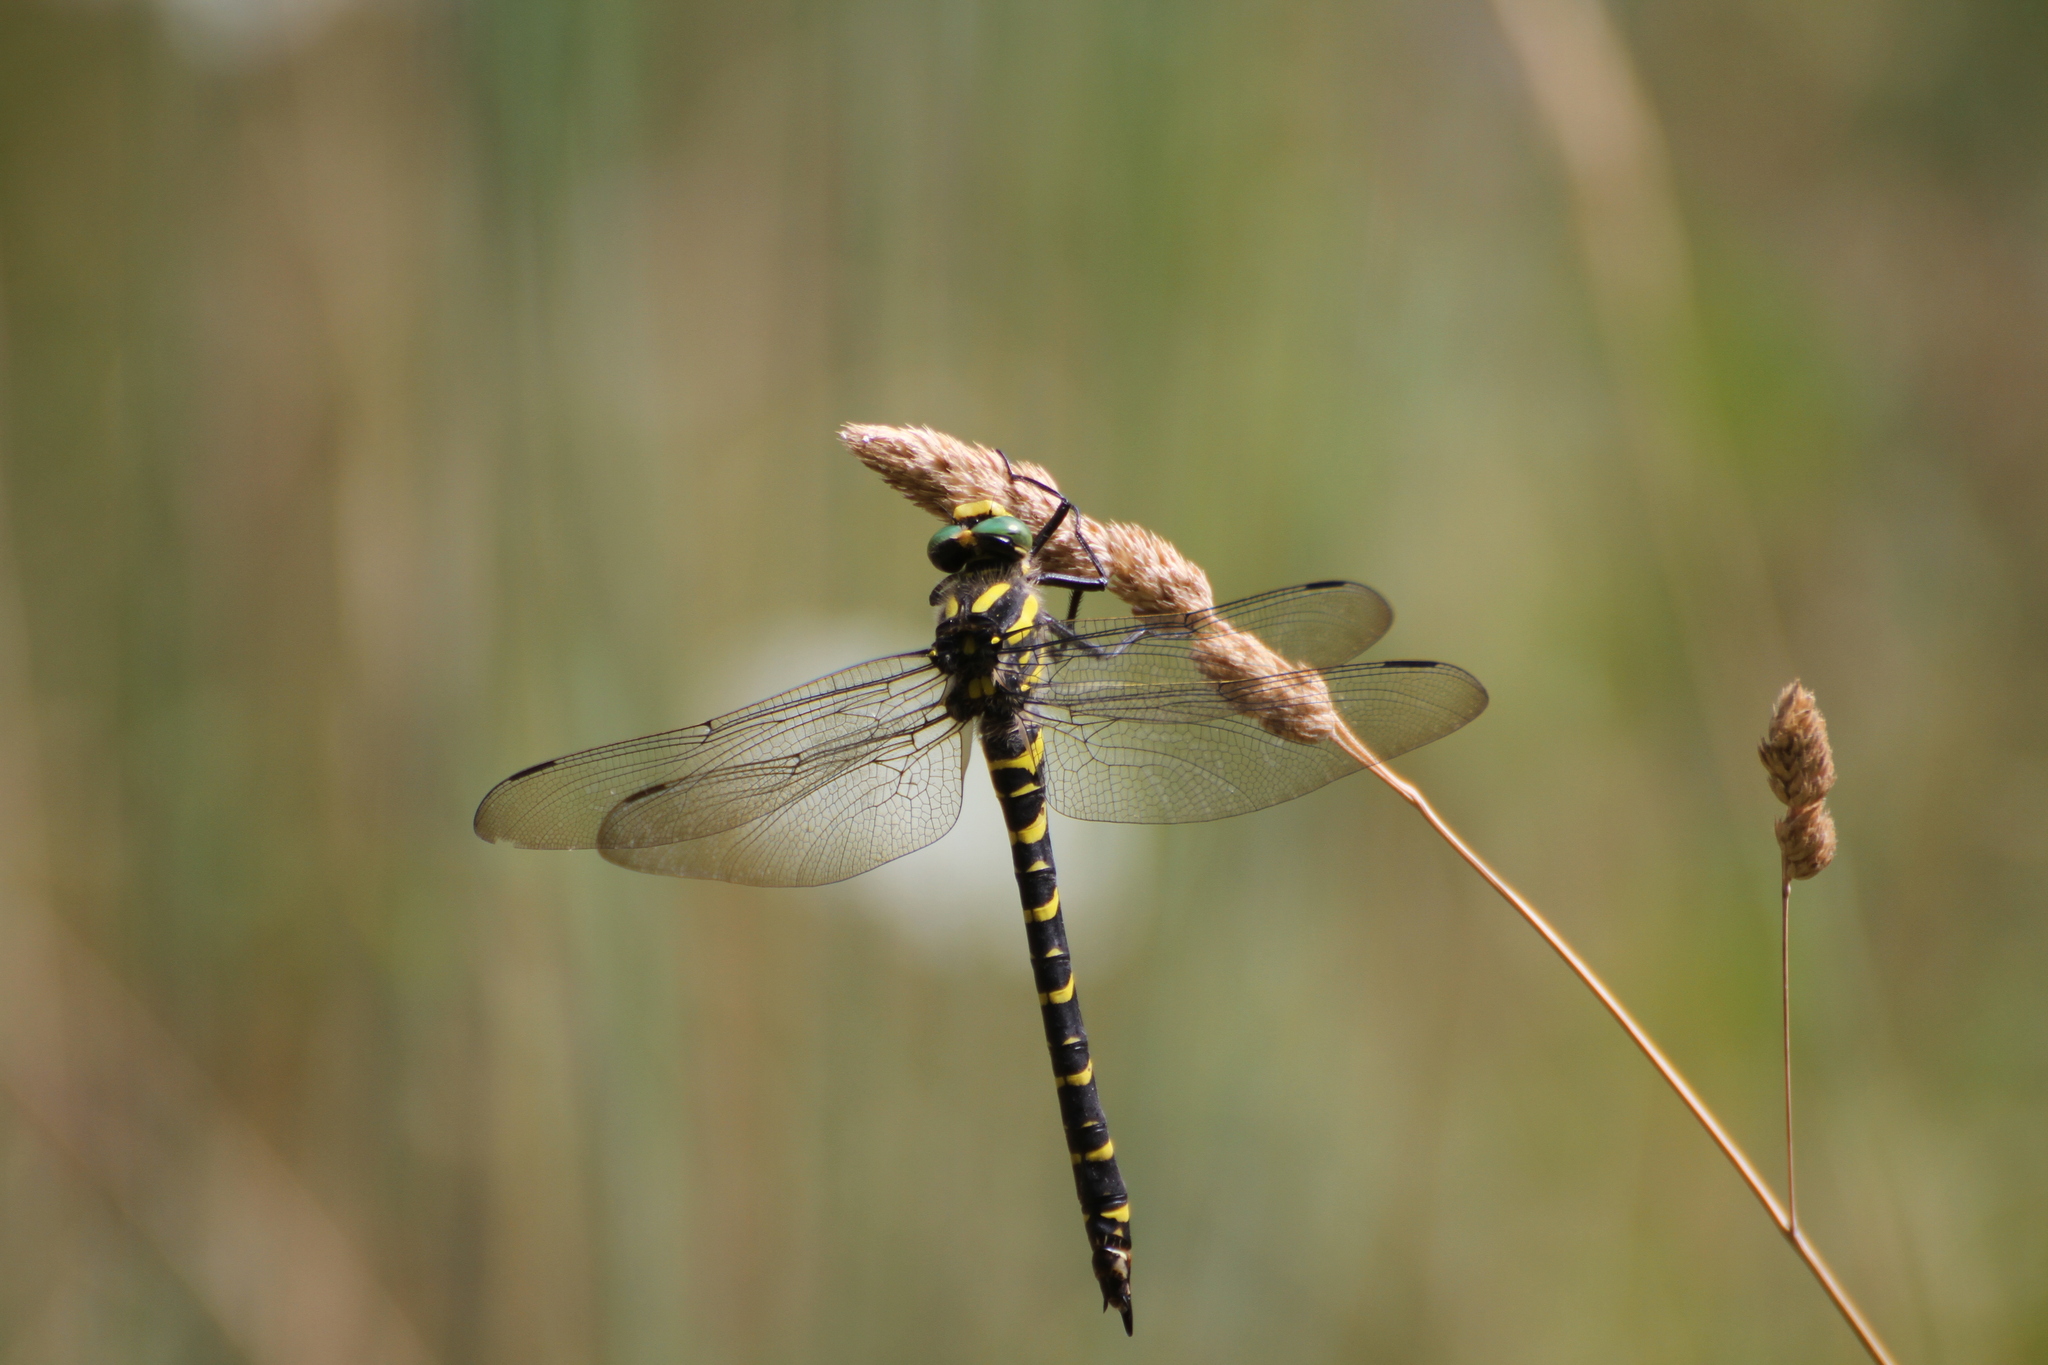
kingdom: Animalia
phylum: Arthropoda
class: Insecta
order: Odonata
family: Cordulegastridae
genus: Cordulegaster
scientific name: Cordulegaster boltonii
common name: Golden-ringed dragonfly
